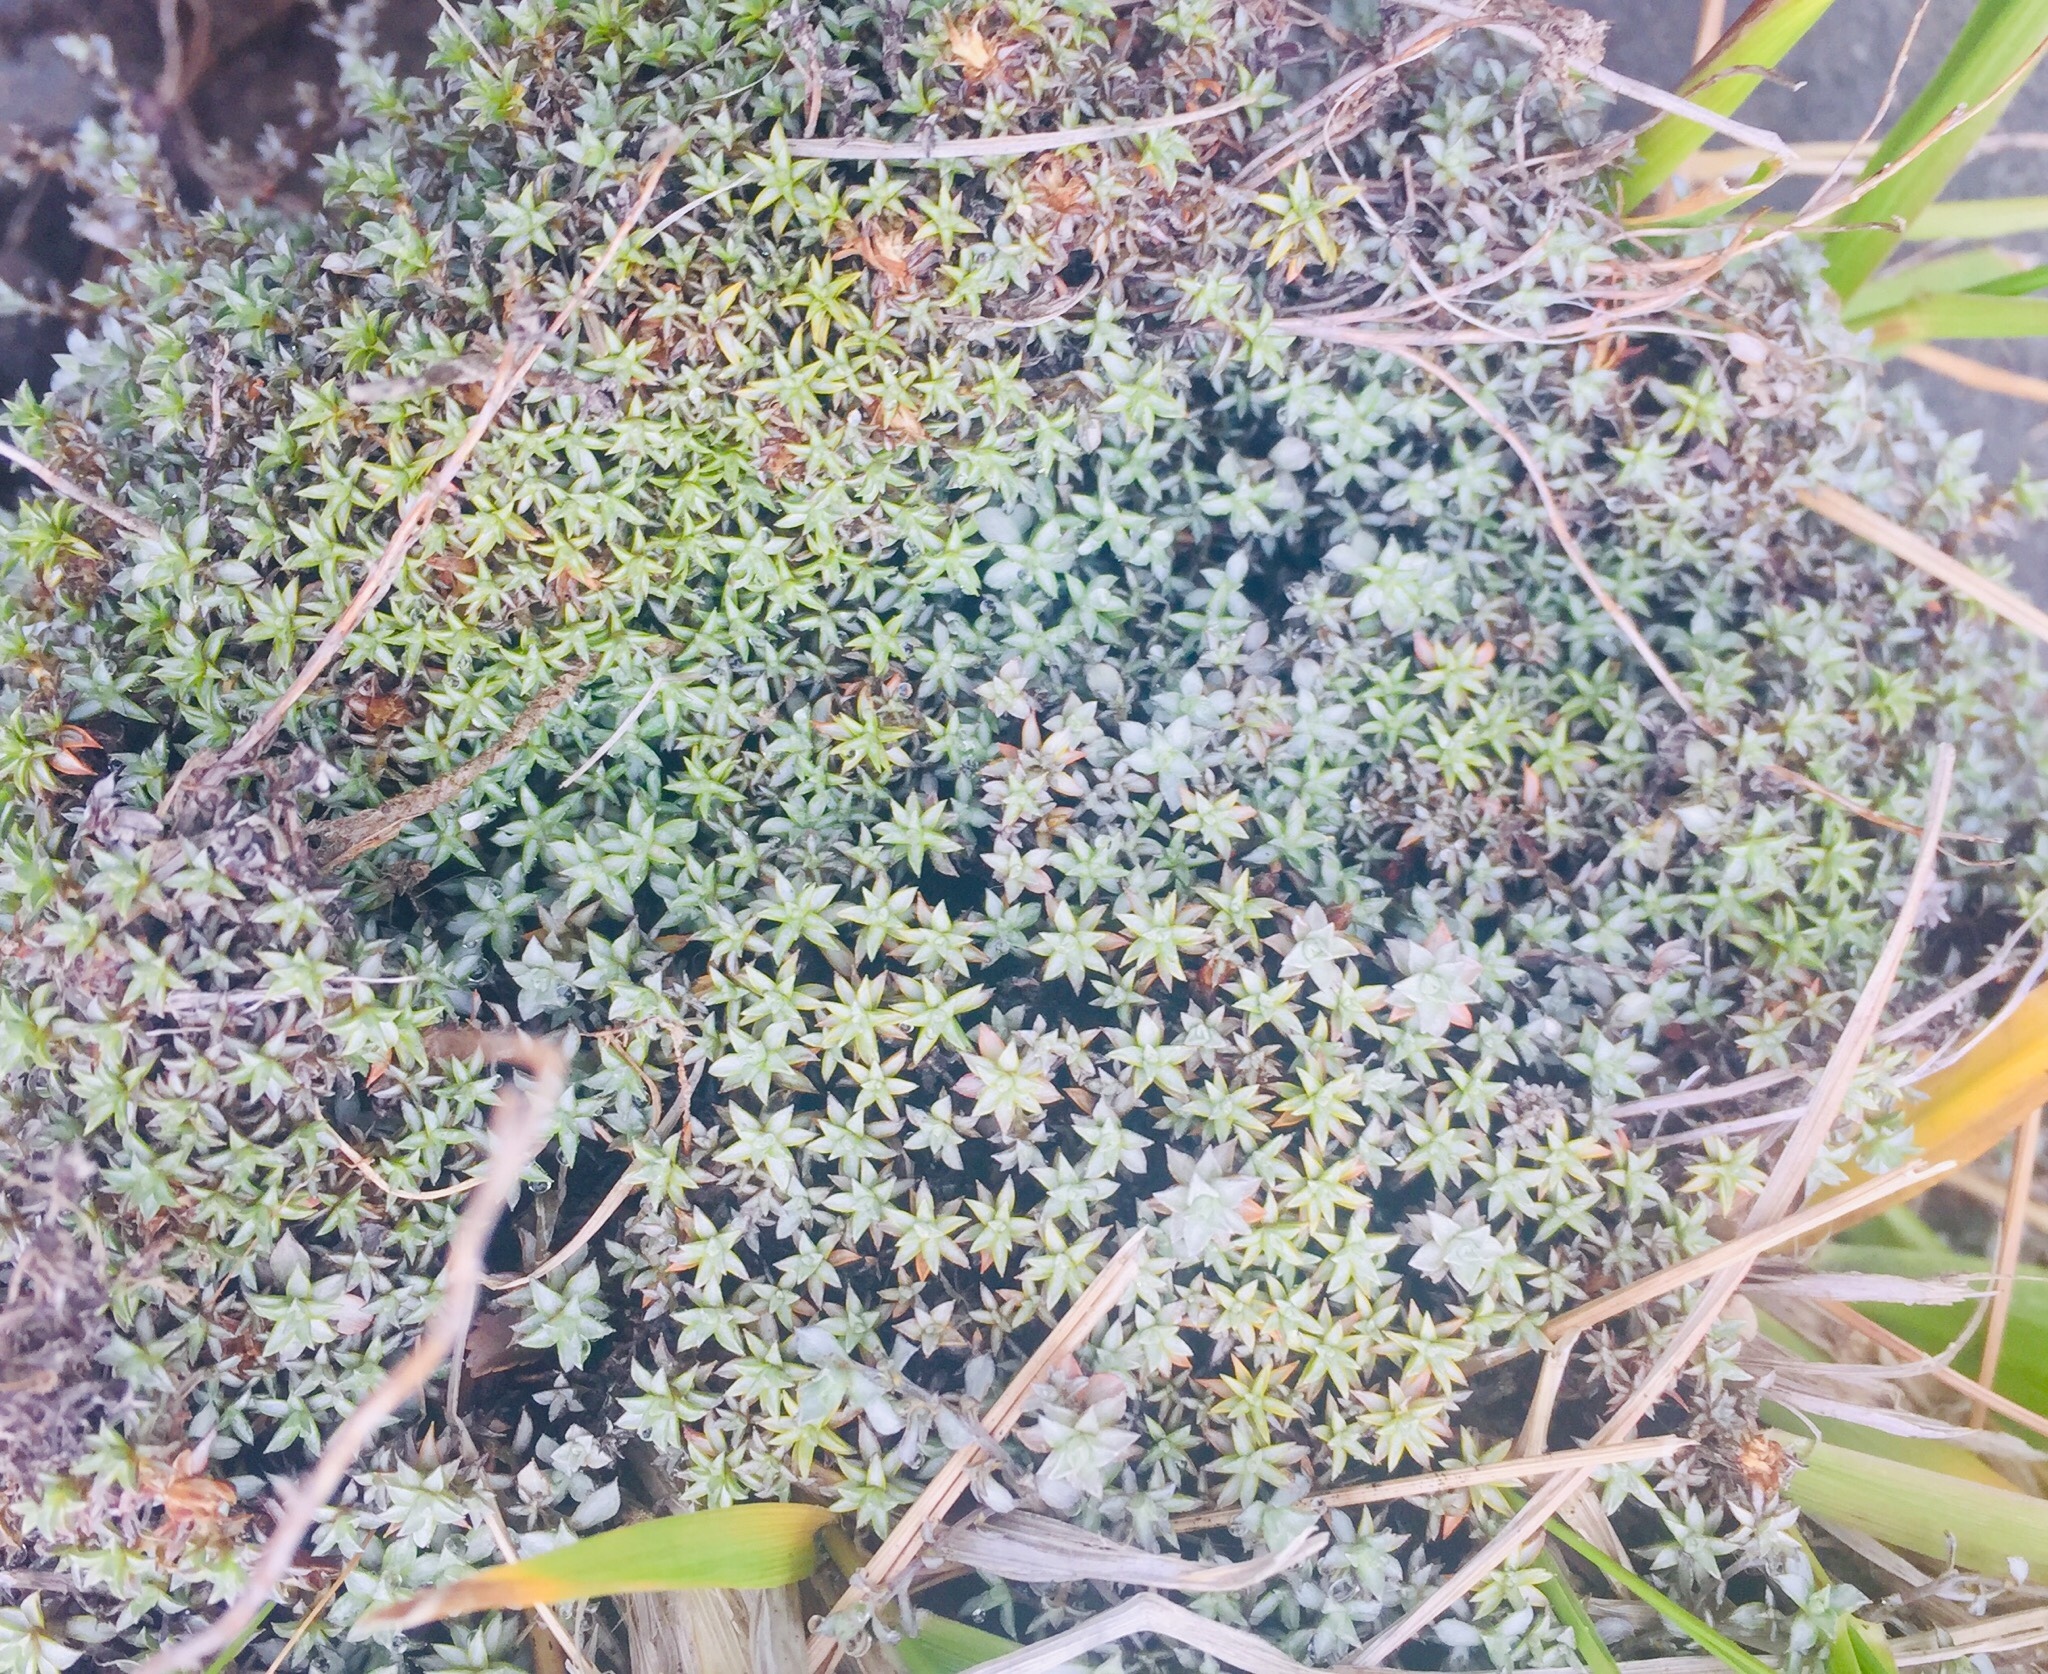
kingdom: Plantae
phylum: Tracheophyta
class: Magnoliopsida
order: Asterales
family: Asteraceae
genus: Raoulia
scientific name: Raoulia tenuicaulis
